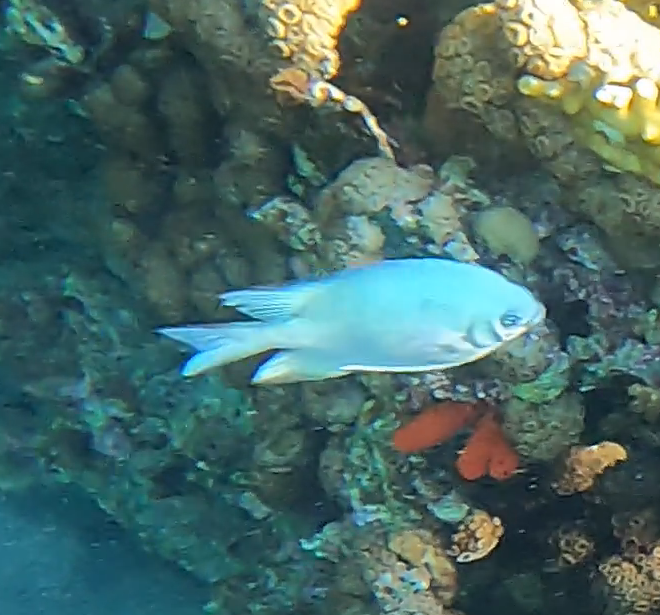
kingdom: Animalia
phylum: Chordata
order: Perciformes
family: Pomacentridae
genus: Amblyglyphidodon
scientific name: Amblyglyphidodon indicus
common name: Maldives damselfish
